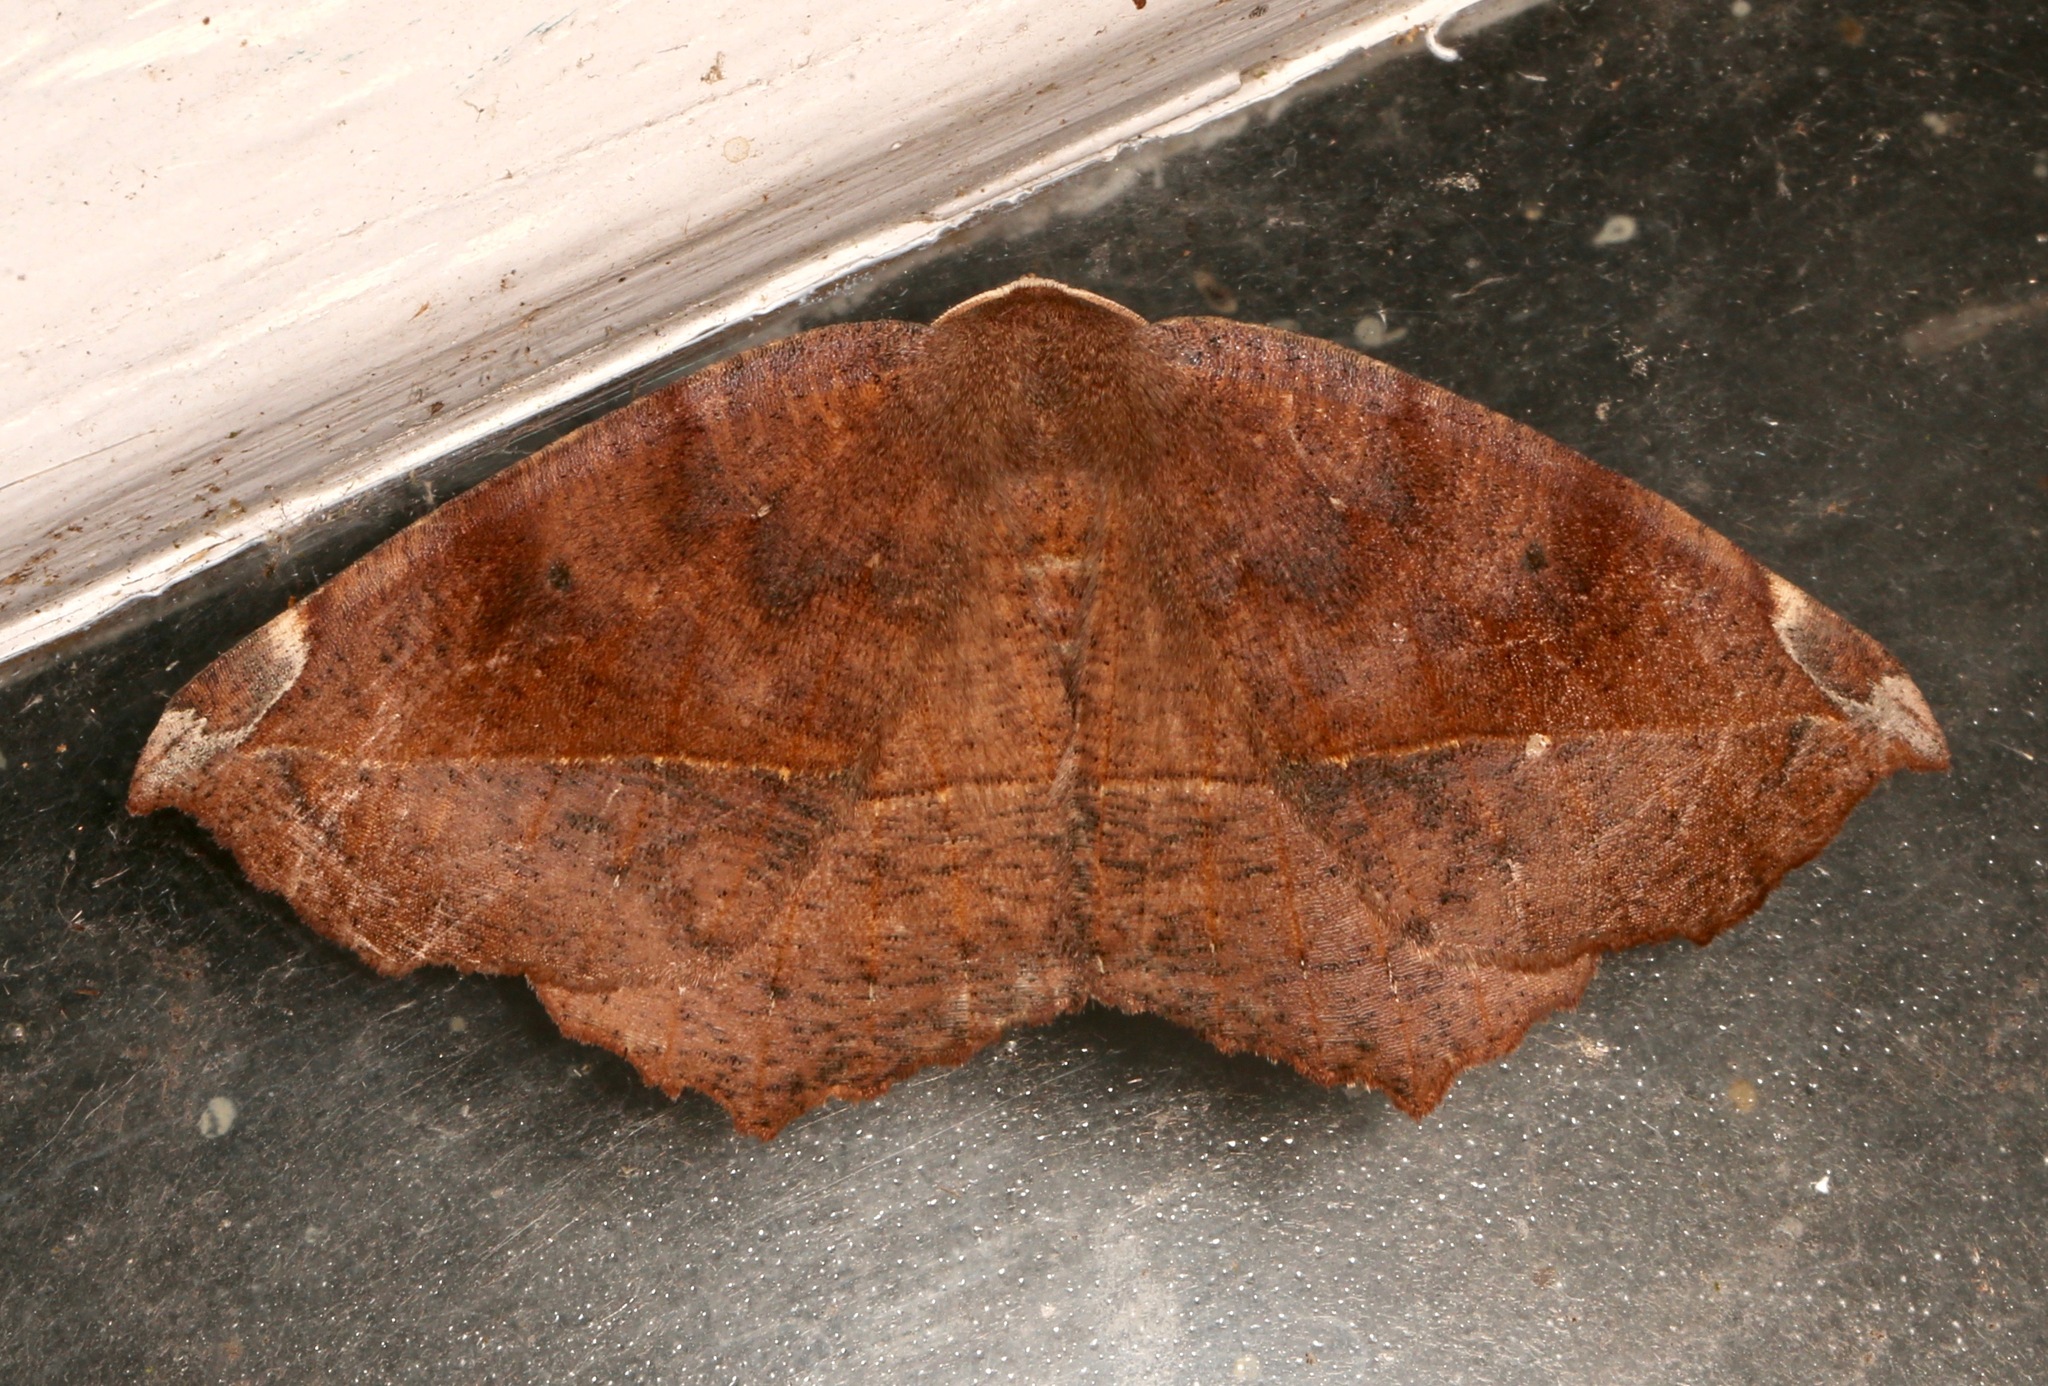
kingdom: Animalia
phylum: Arthropoda
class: Insecta
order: Lepidoptera
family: Geometridae
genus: Eutrapela
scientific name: Eutrapela clemataria
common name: Curved-toothed geometer
